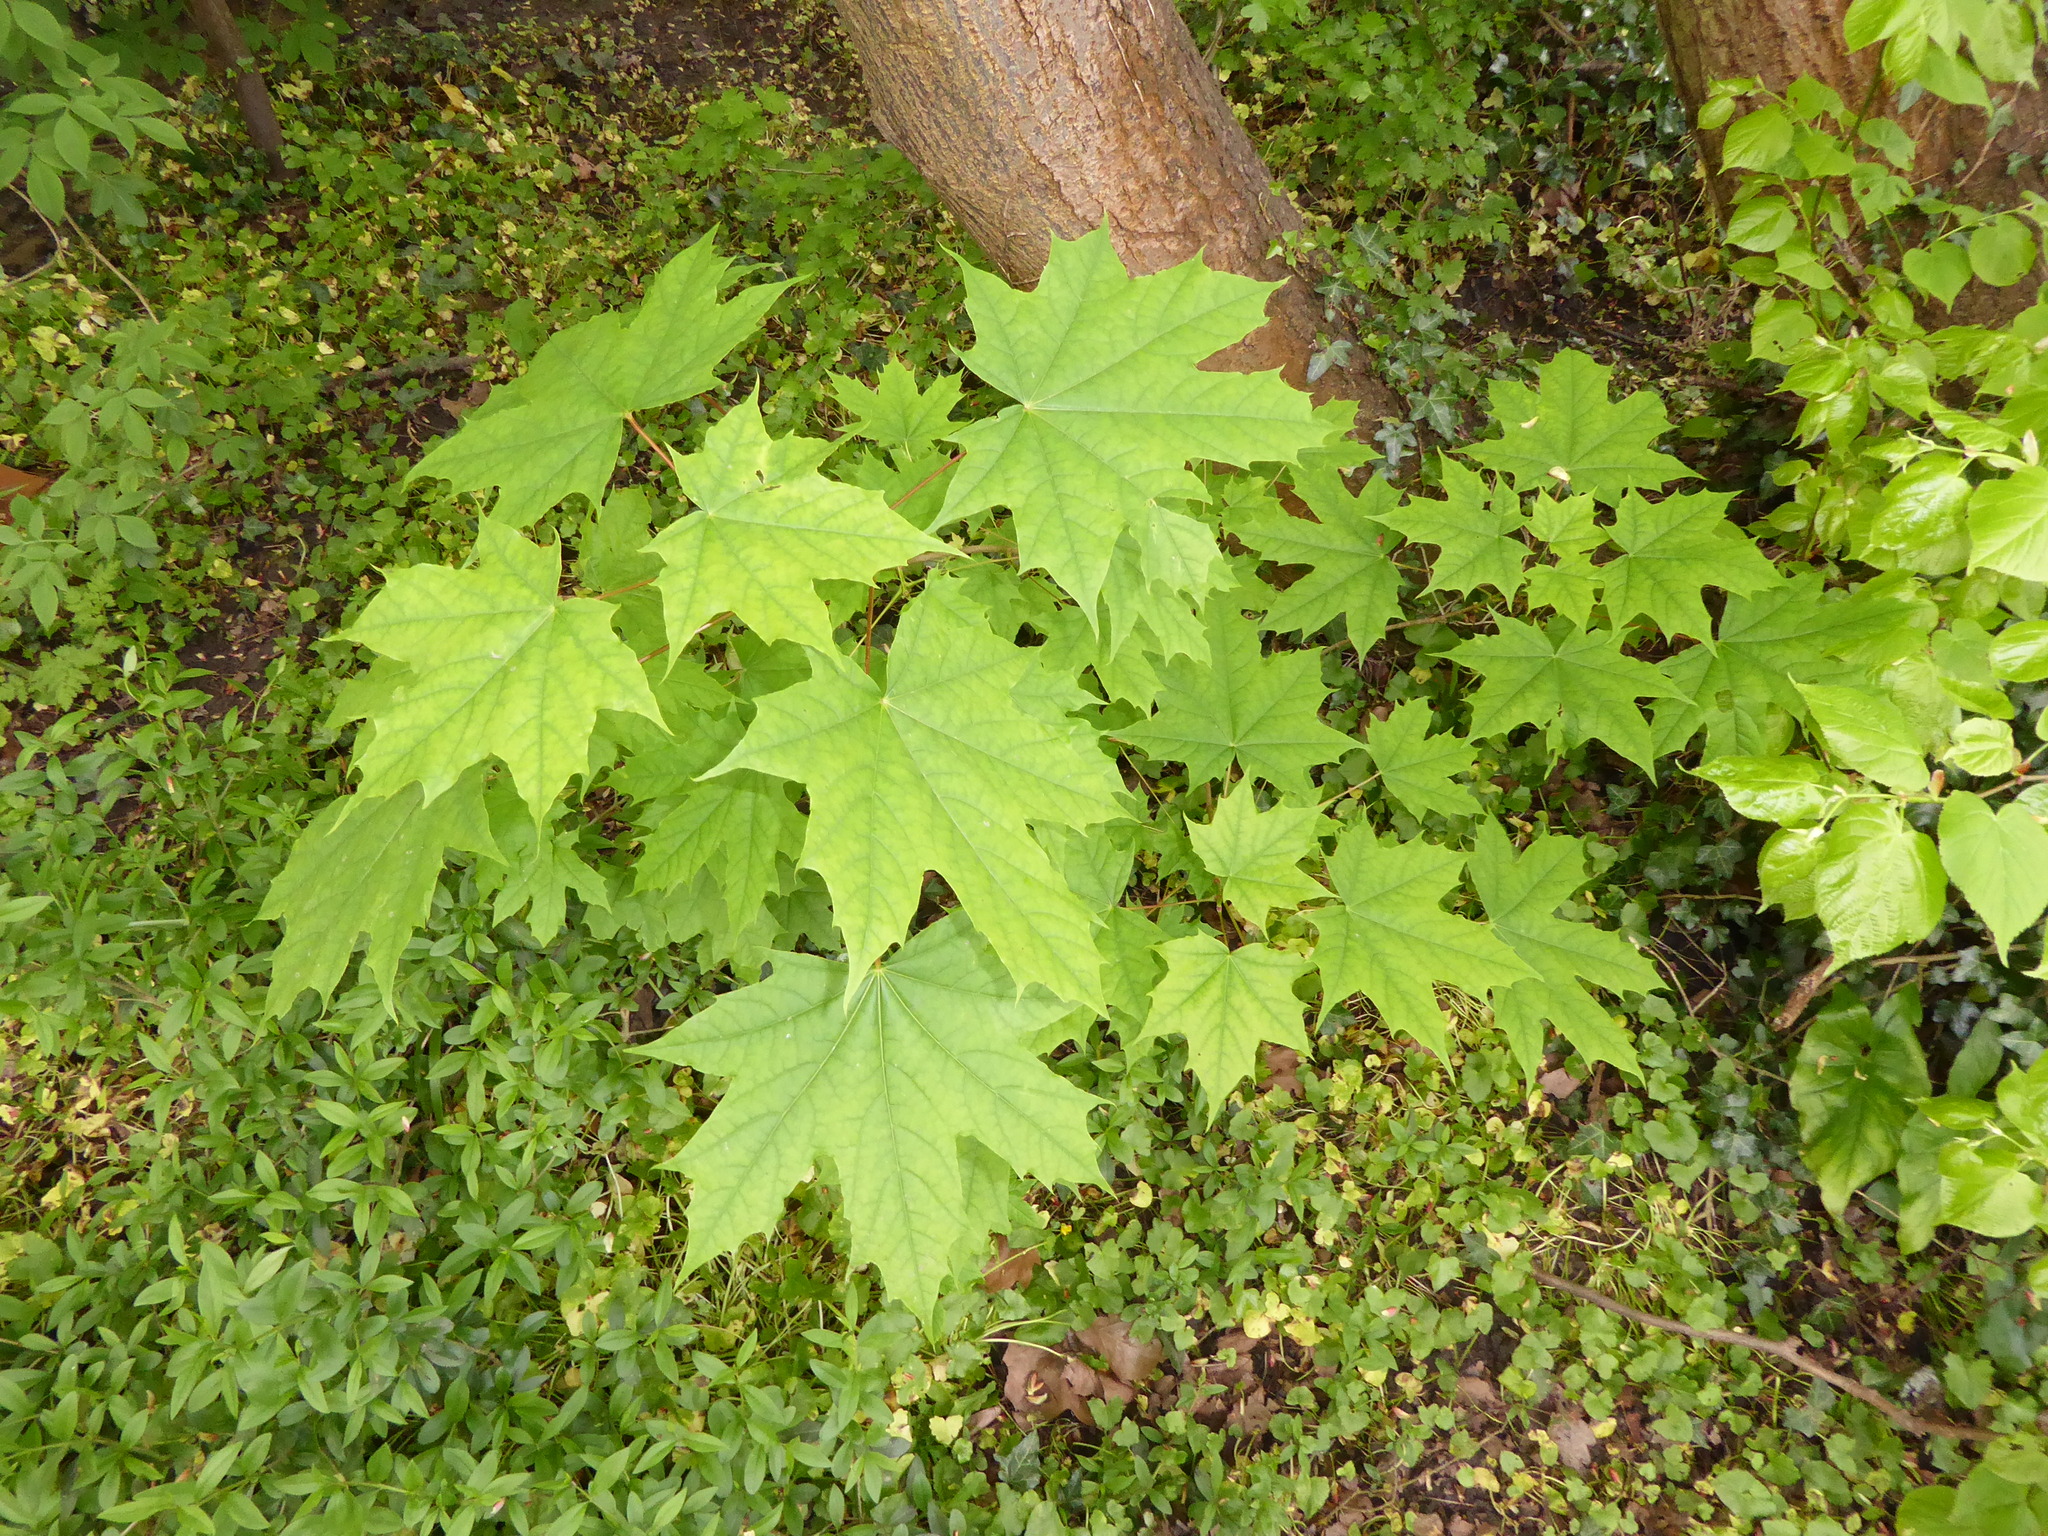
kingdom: Plantae
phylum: Tracheophyta
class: Magnoliopsida
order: Sapindales
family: Sapindaceae
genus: Acer
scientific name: Acer platanoides
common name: Norway maple
